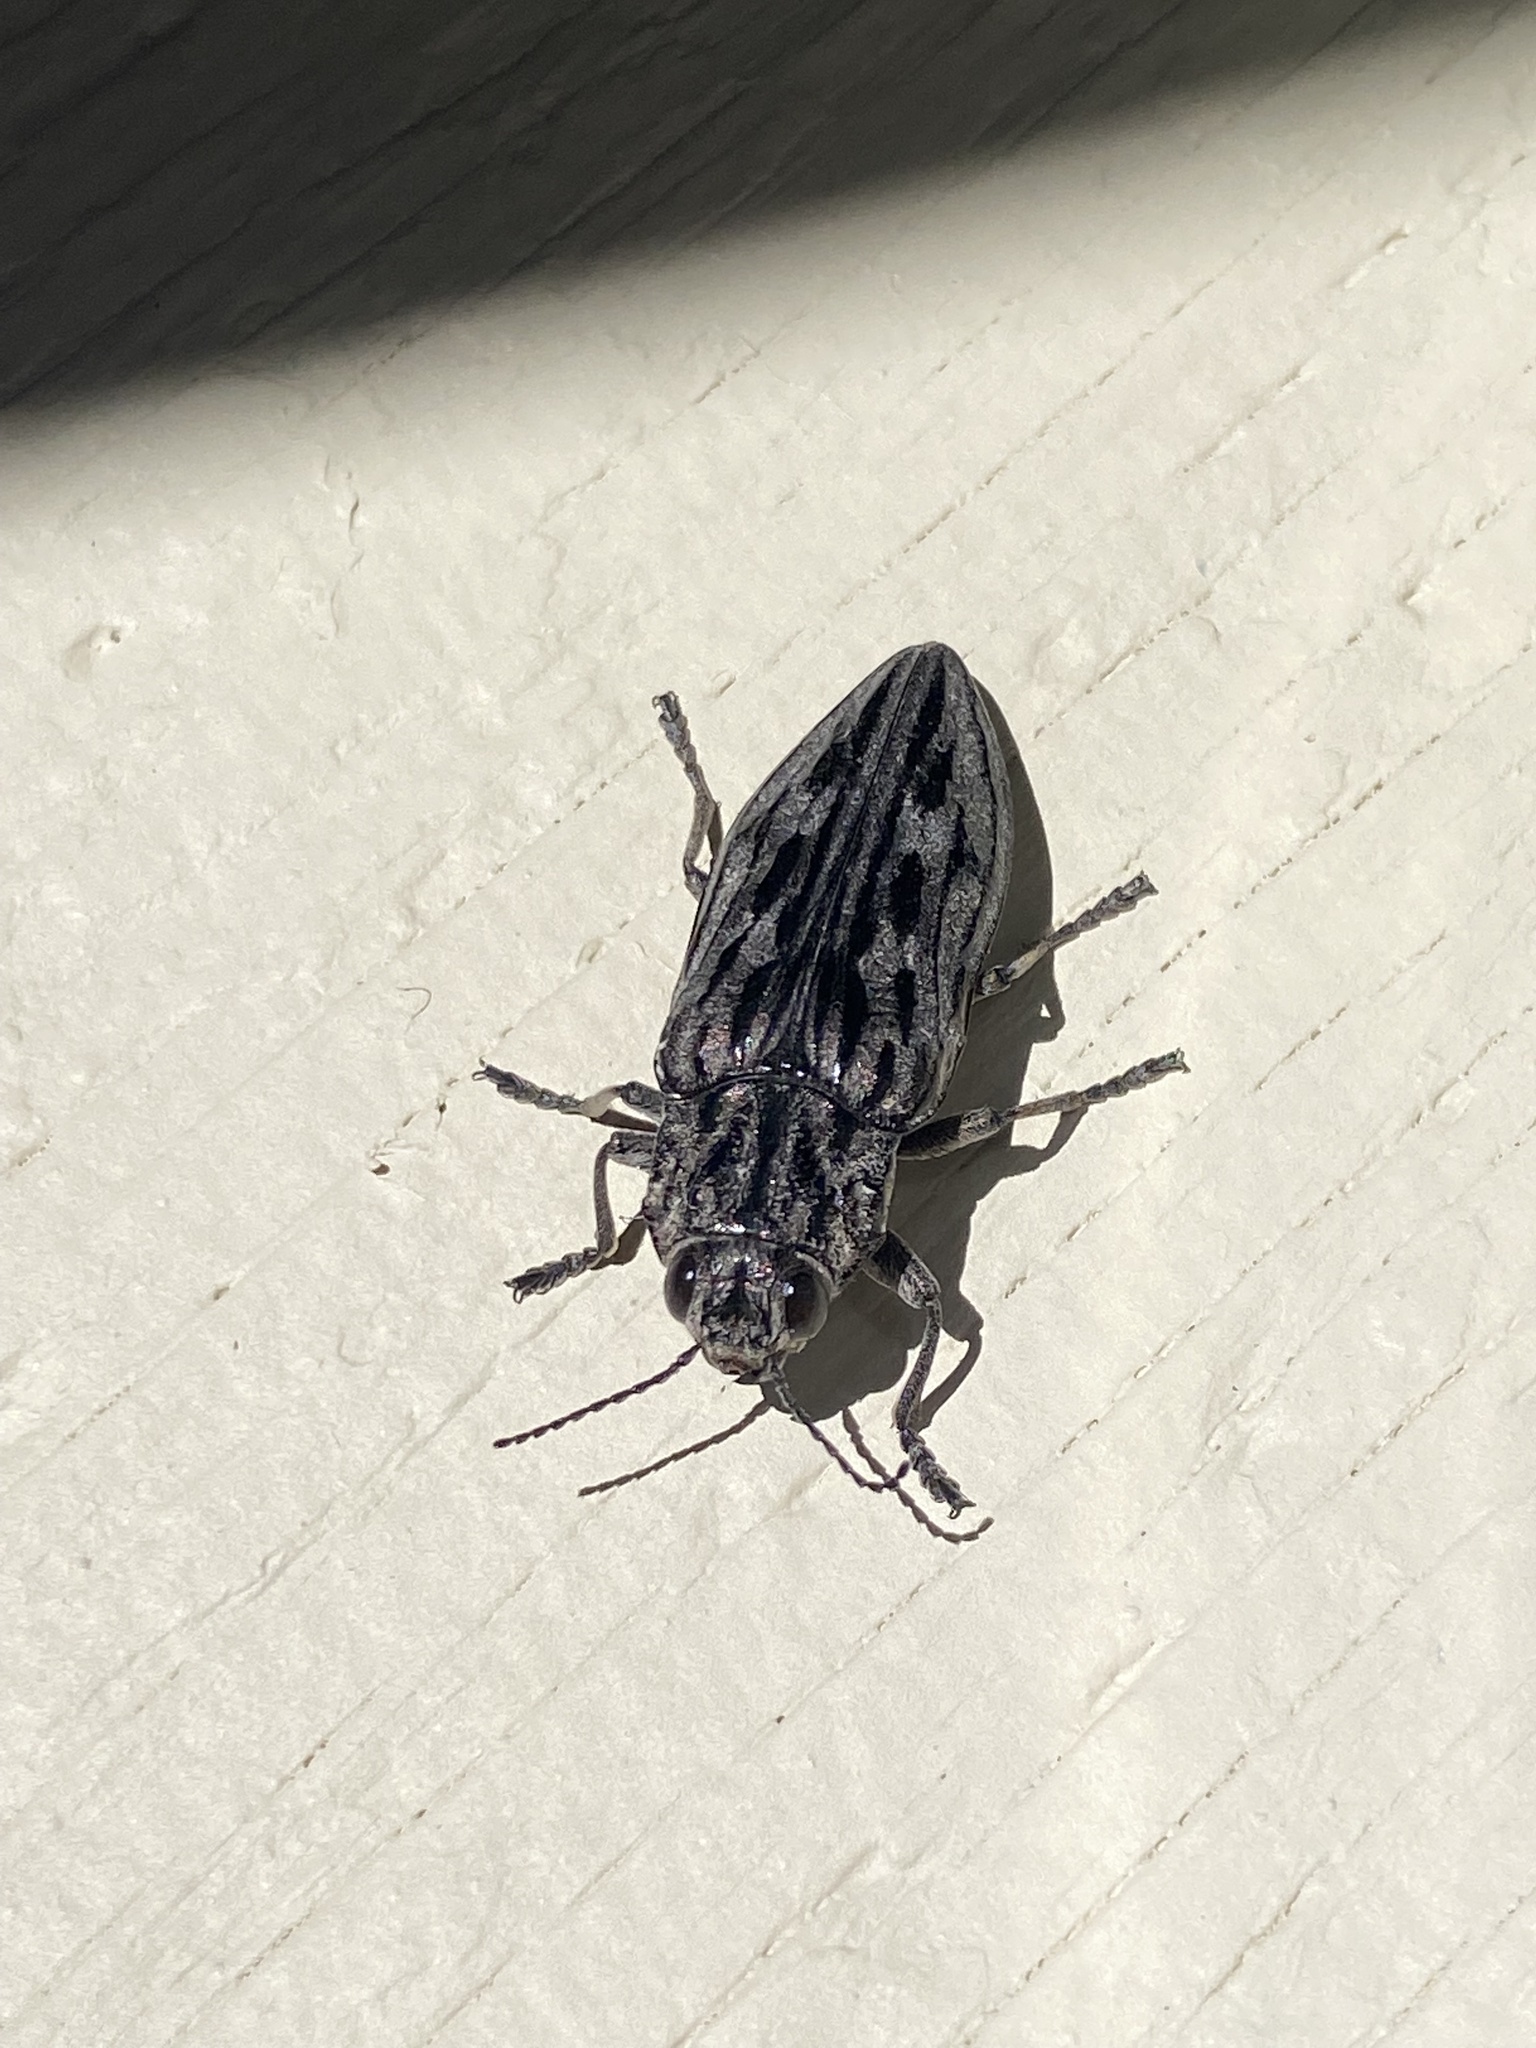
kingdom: Animalia
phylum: Arthropoda
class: Insecta
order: Coleoptera
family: Buprestidae
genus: Chalcophora
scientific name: Chalcophora angulicollis
